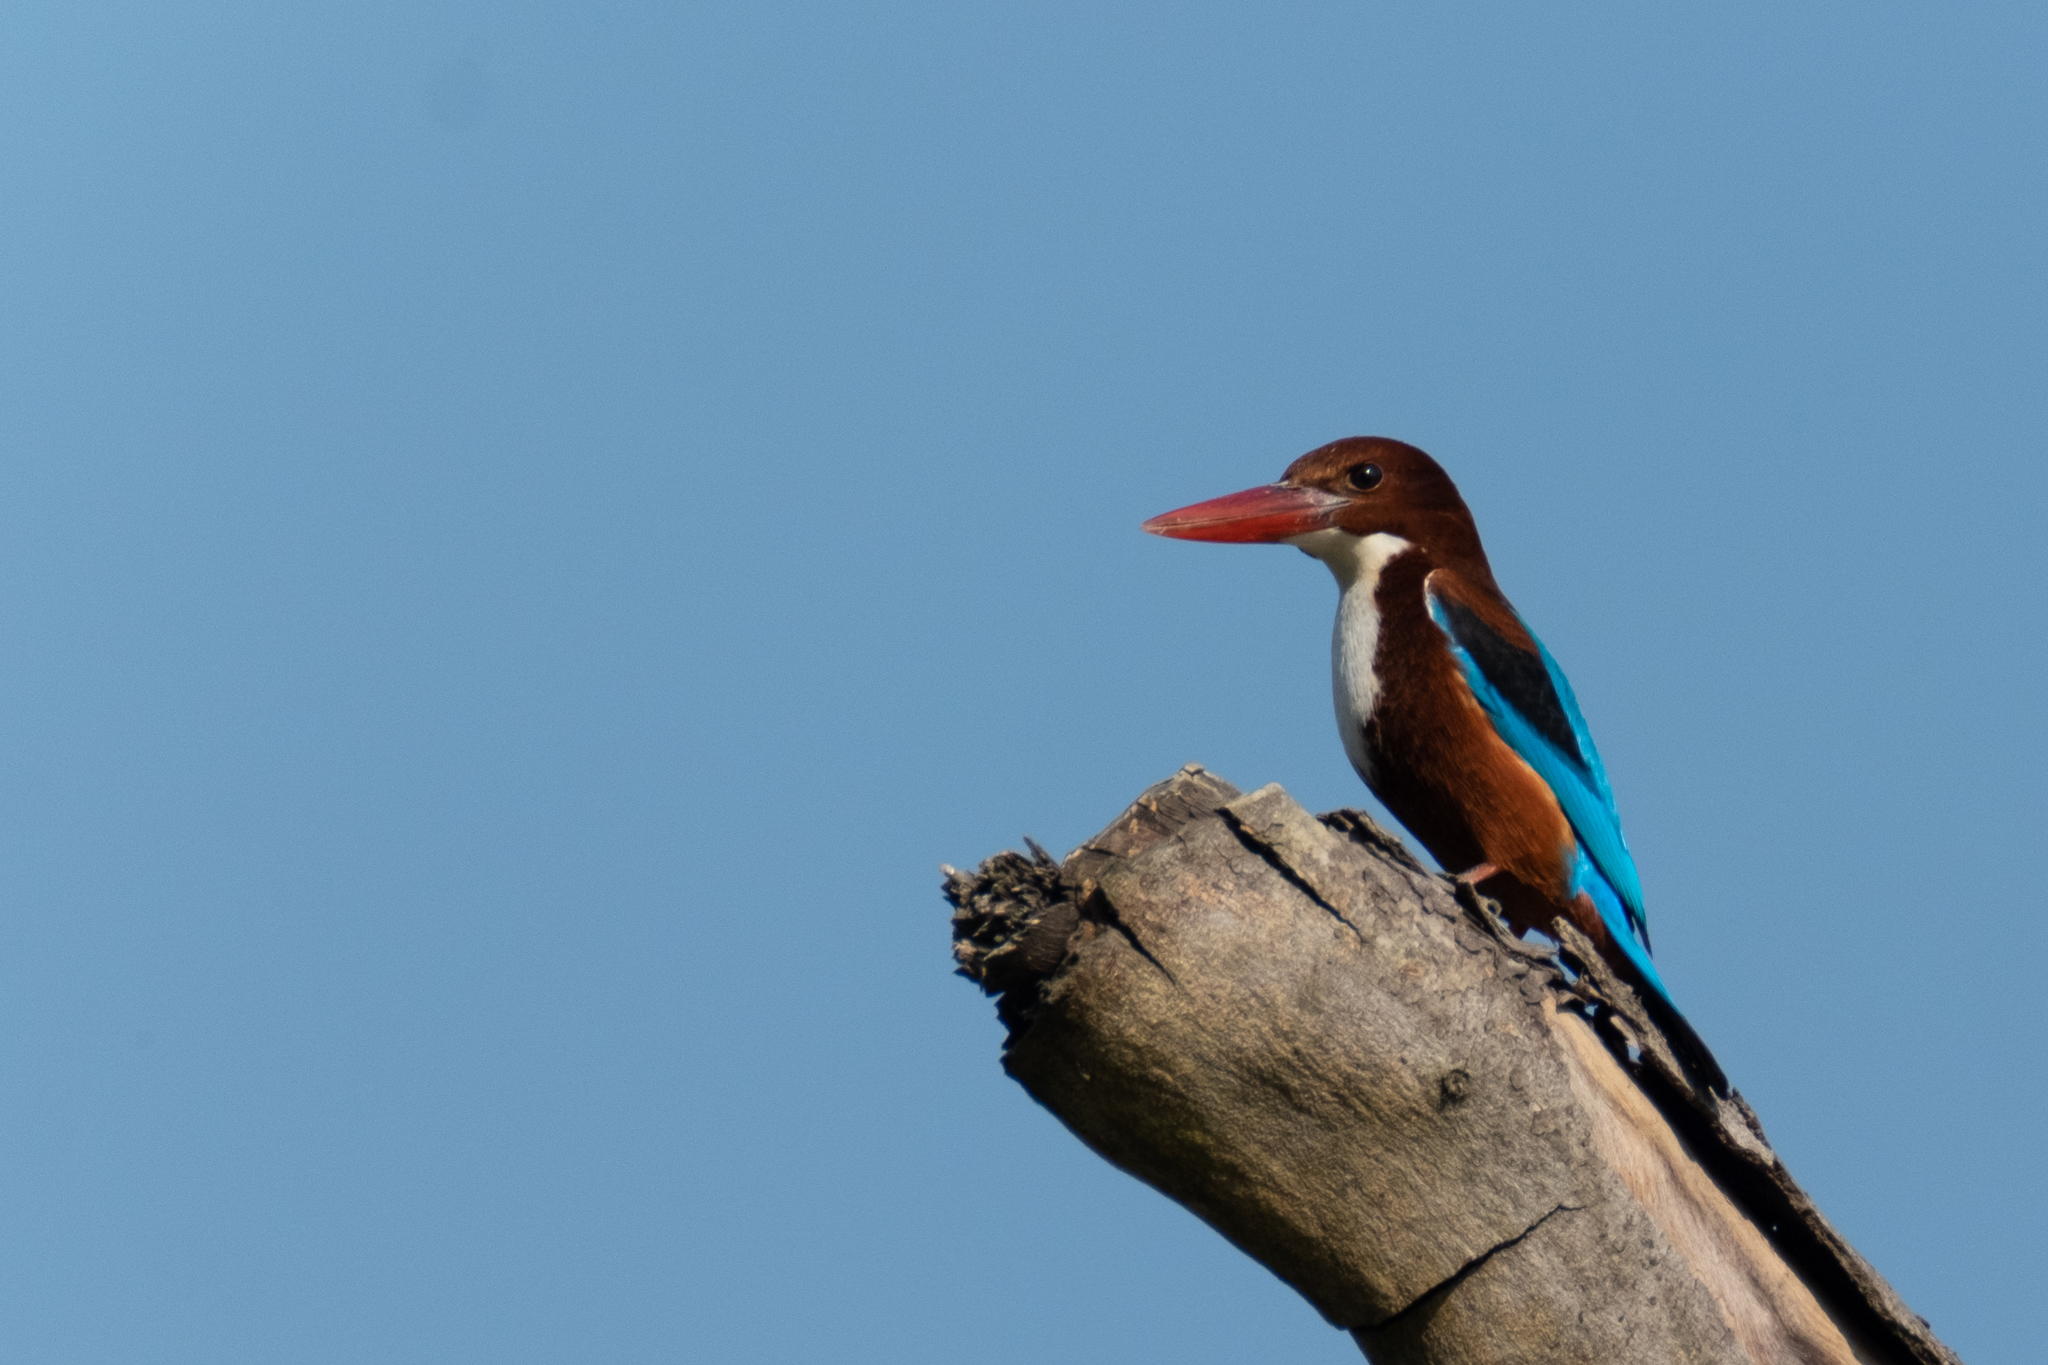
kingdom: Animalia
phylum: Chordata
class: Aves
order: Coraciiformes
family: Alcedinidae
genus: Halcyon
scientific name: Halcyon smyrnensis
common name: White-throated kingfisher
